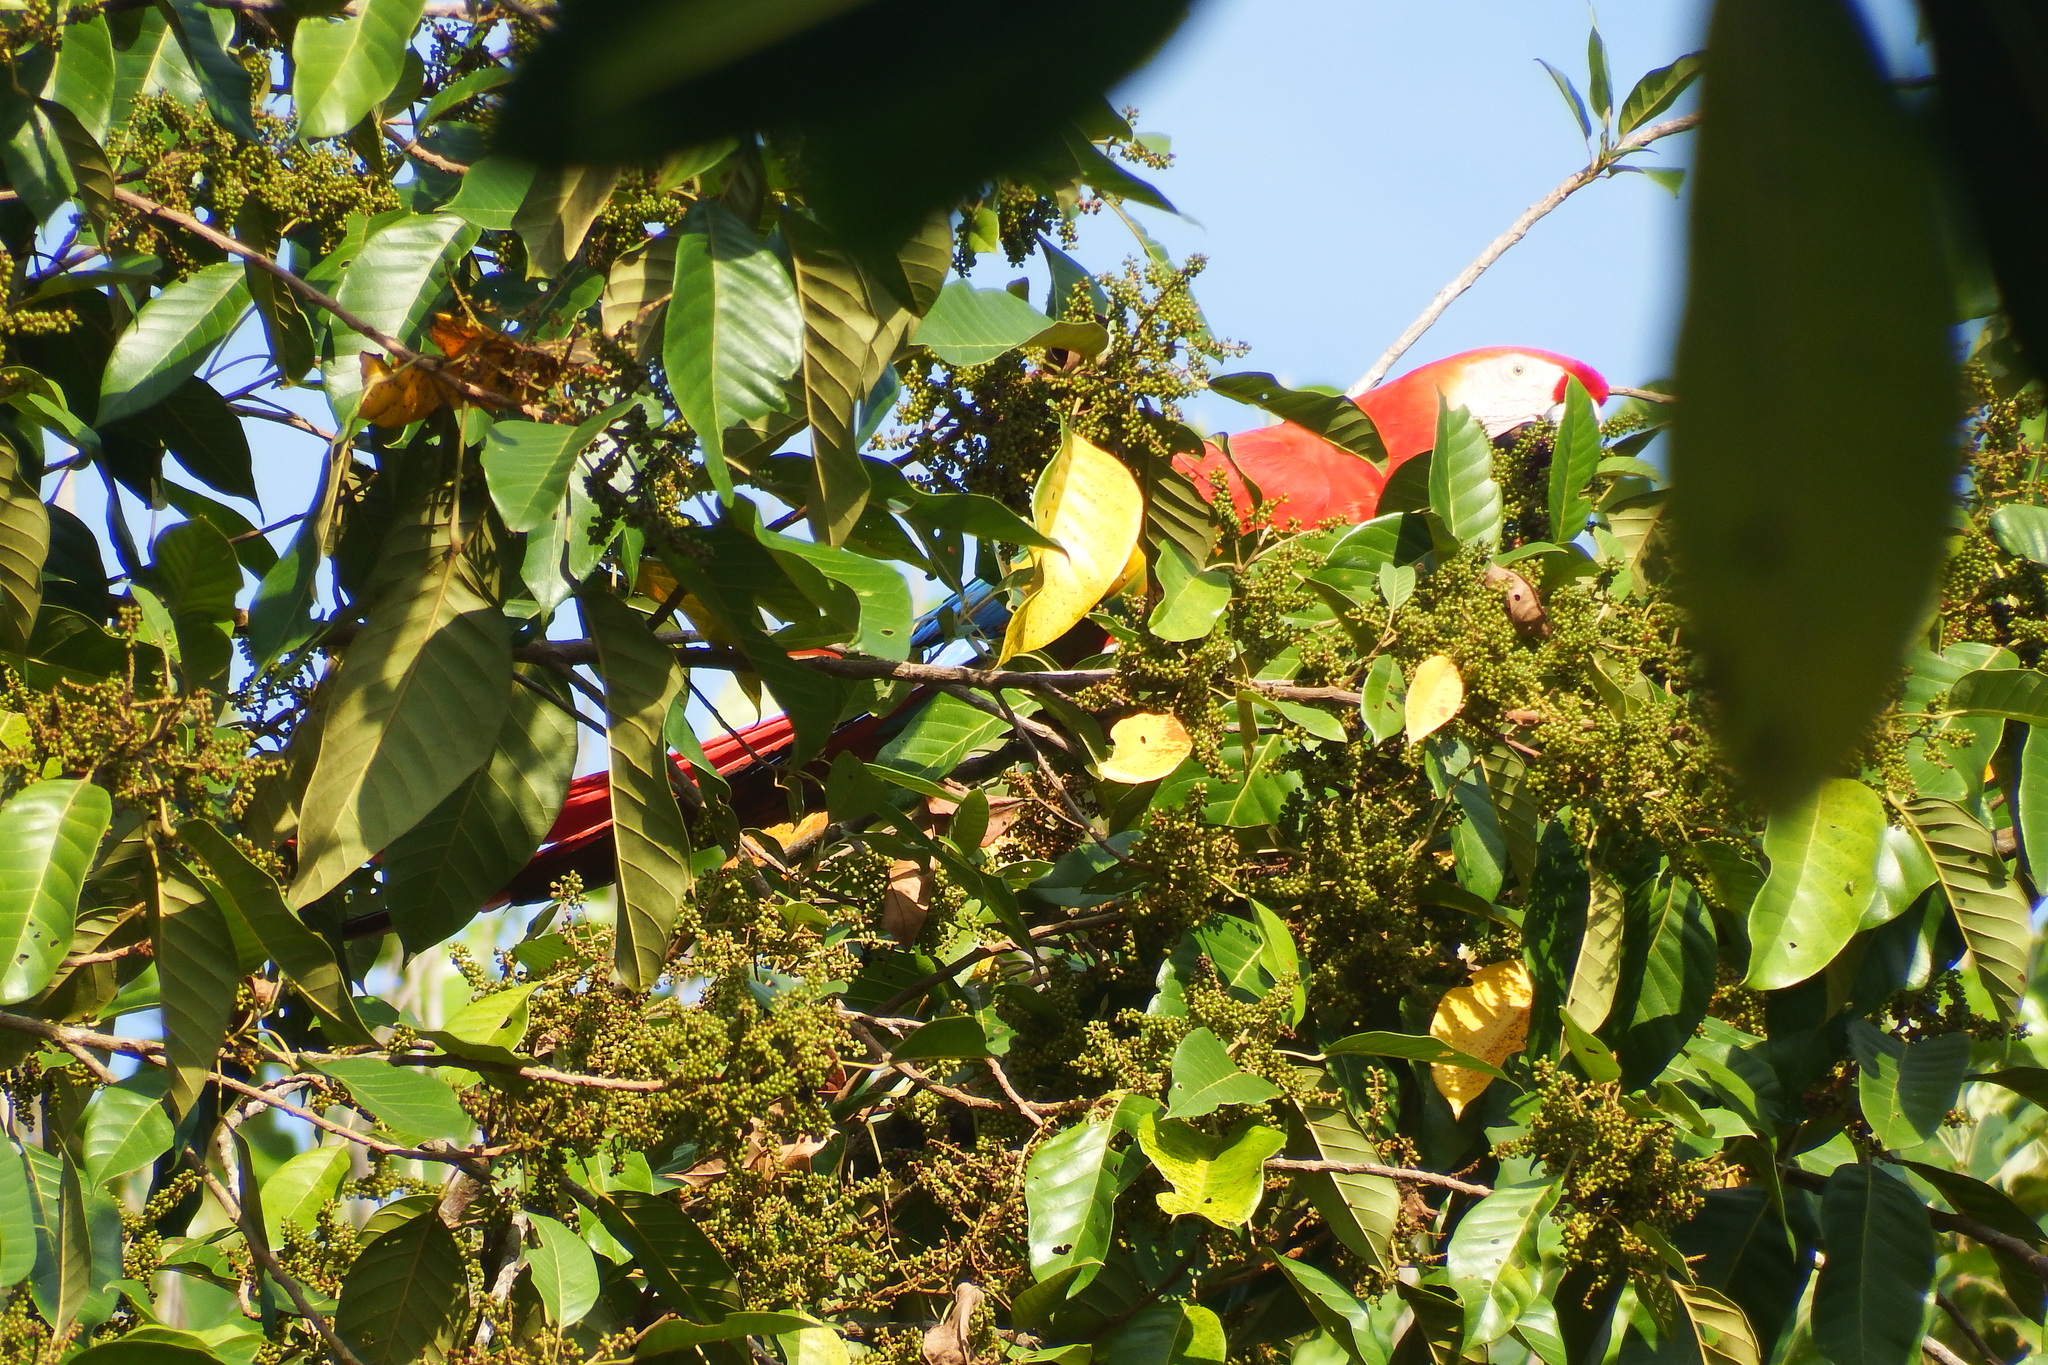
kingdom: Animalia
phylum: Chordata
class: Aves
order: Psittaciformes
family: Psittacidae
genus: Ara
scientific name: Ara macao
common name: Scarlet macaw
